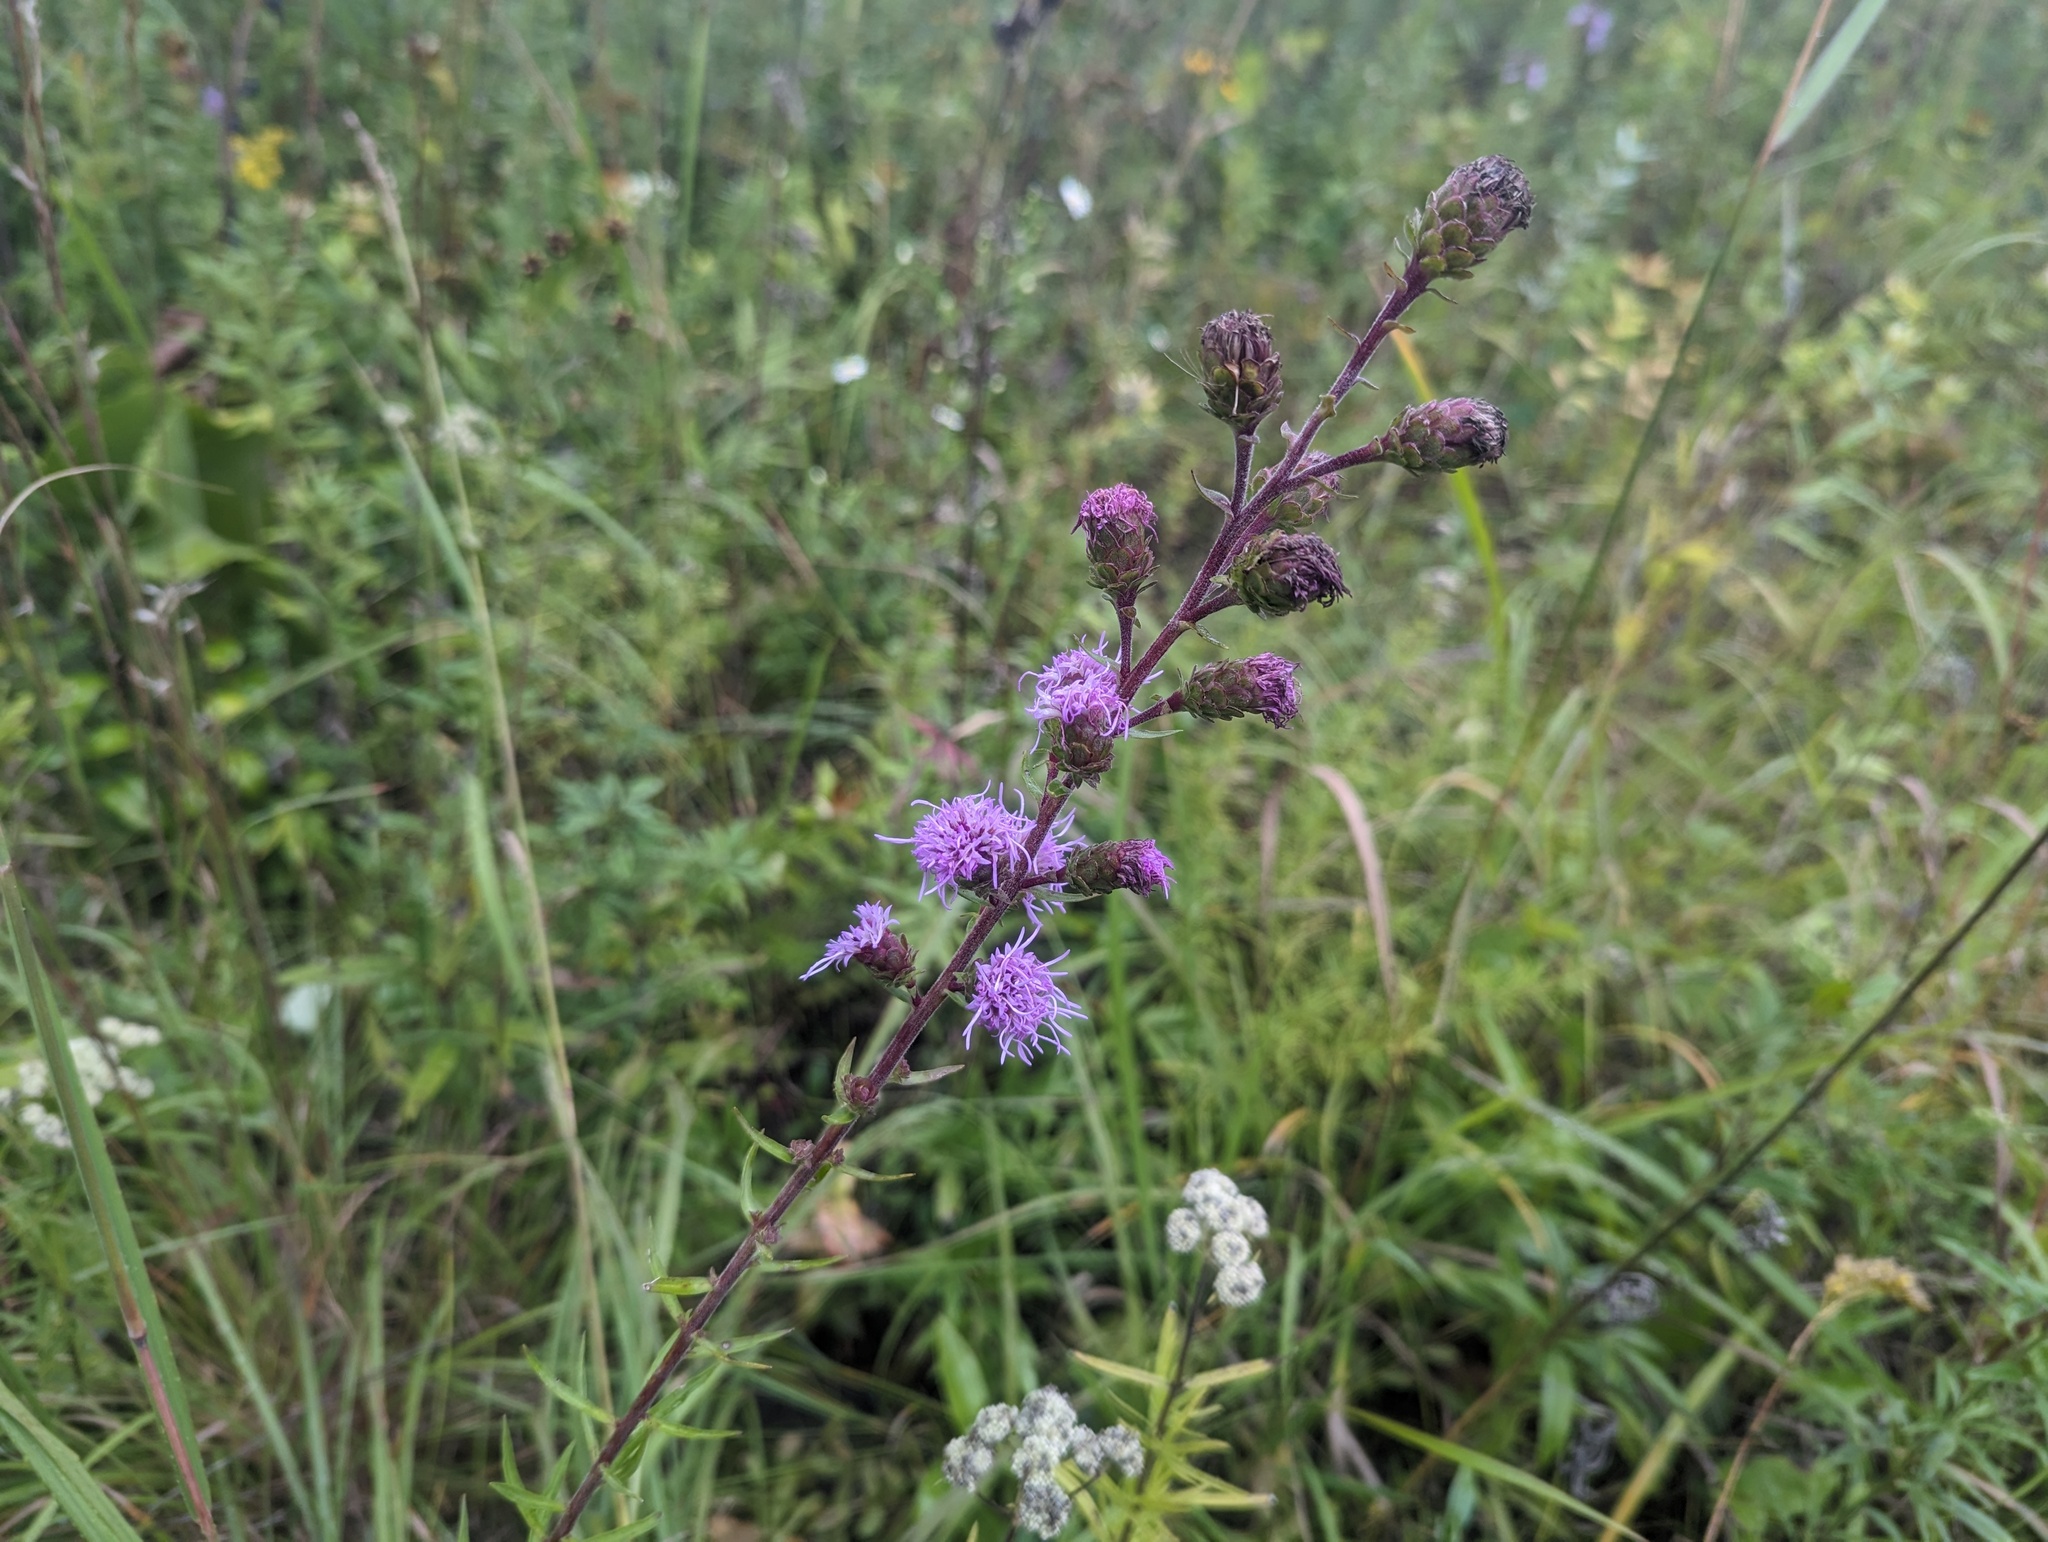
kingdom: Plantae
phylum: Tracheophyta
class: Magnoliopsida
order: Asterales
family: Asteraceae
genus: Liatris
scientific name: Liatris scariosa
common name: Northern gayfeather
